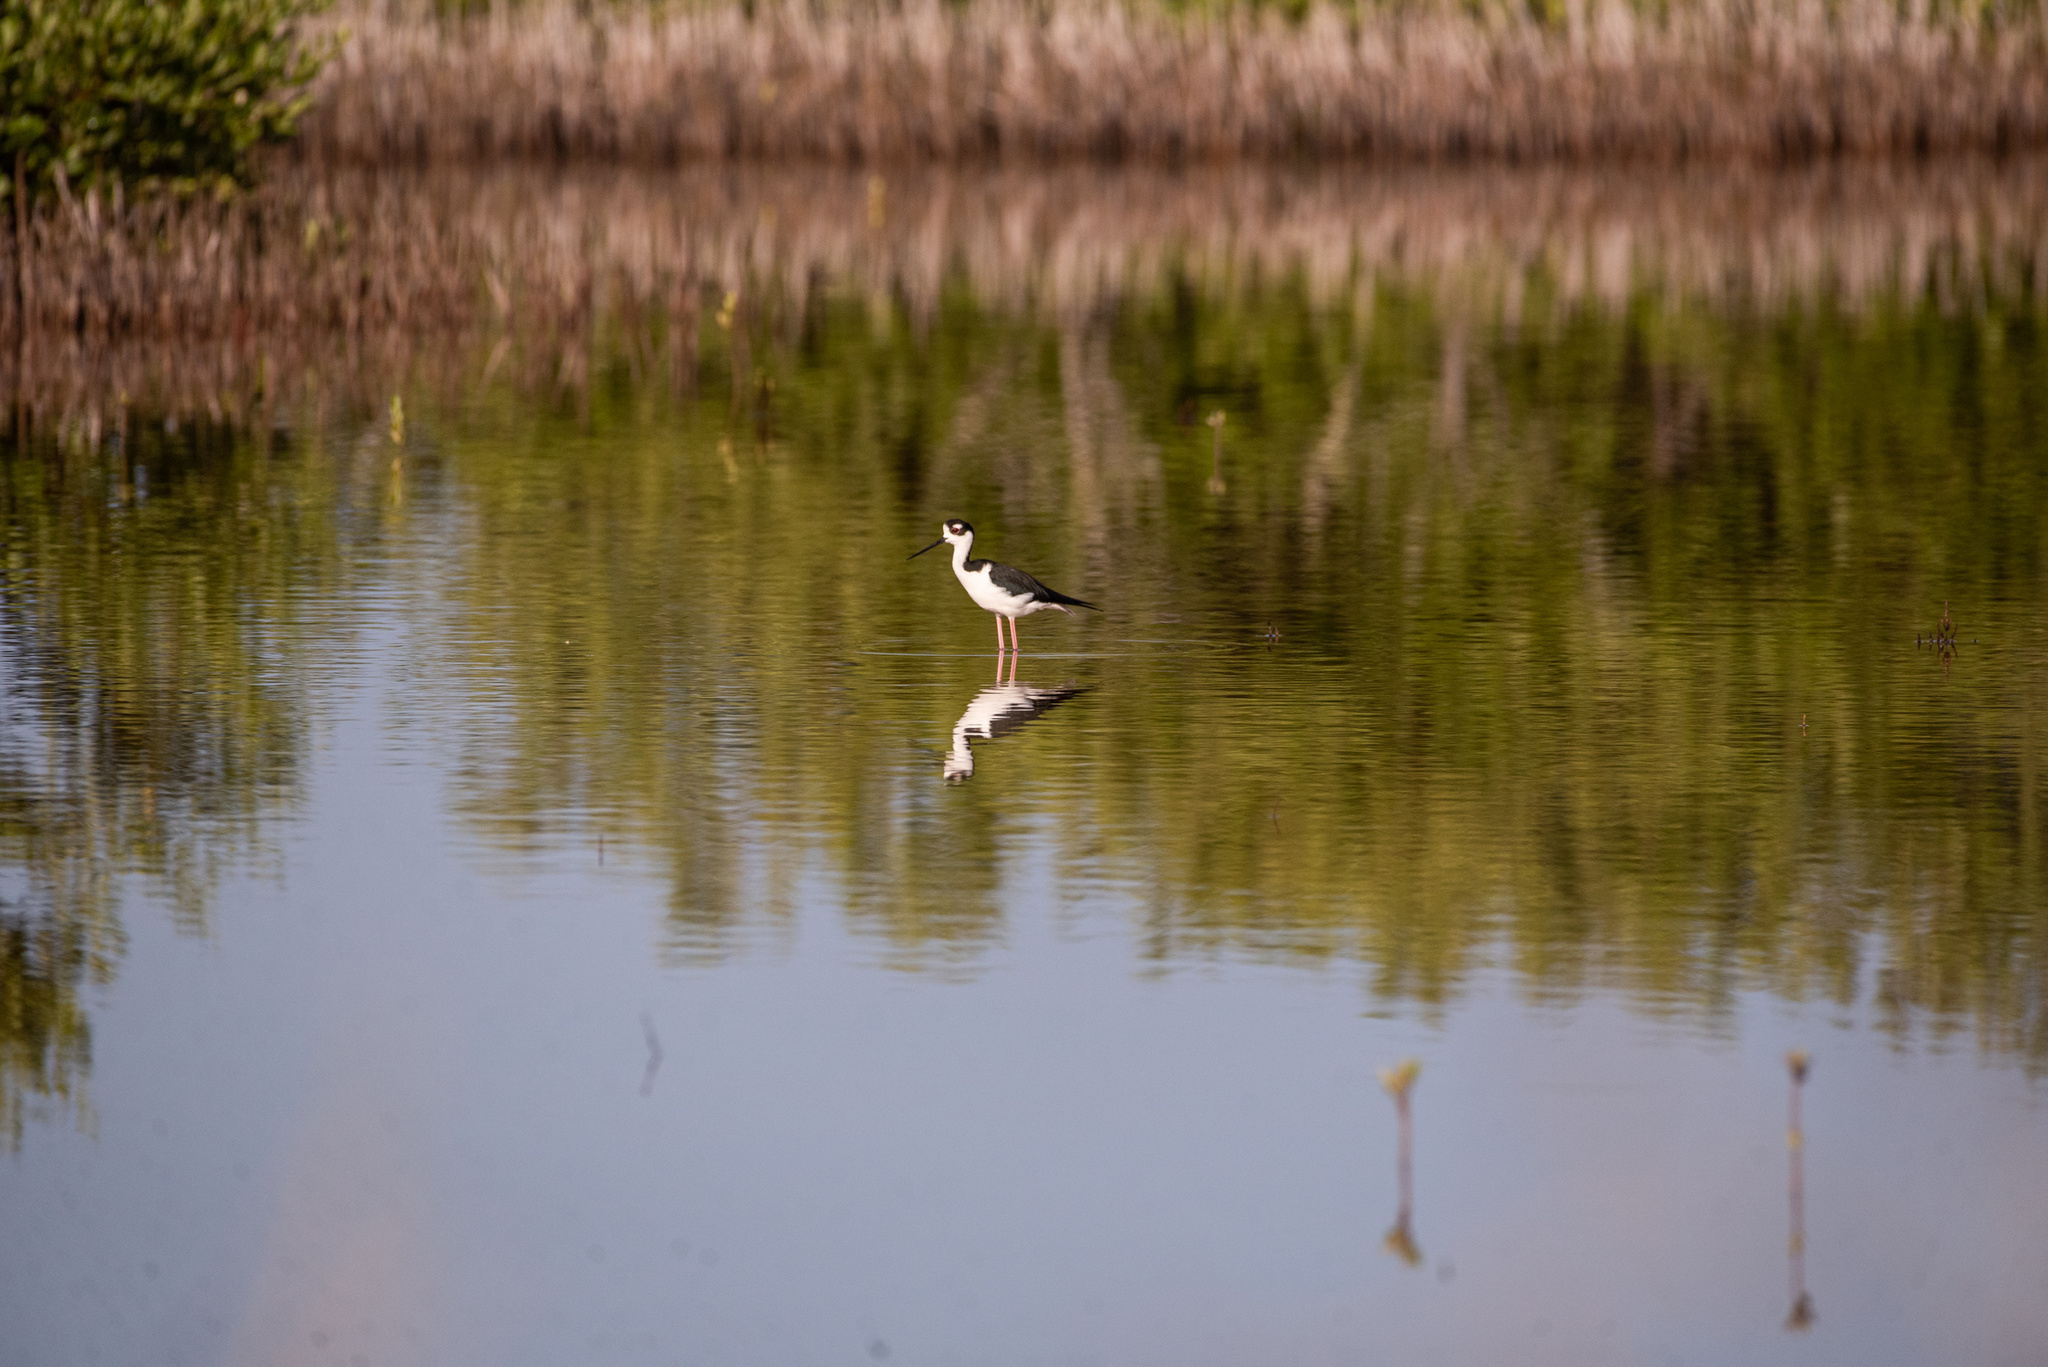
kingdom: Animalia
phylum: Chordata
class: Aves
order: Charadriiformes
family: Recurvirostridae
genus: Himantopus
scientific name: Himantopus mexicanus
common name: Black-necked stilt
